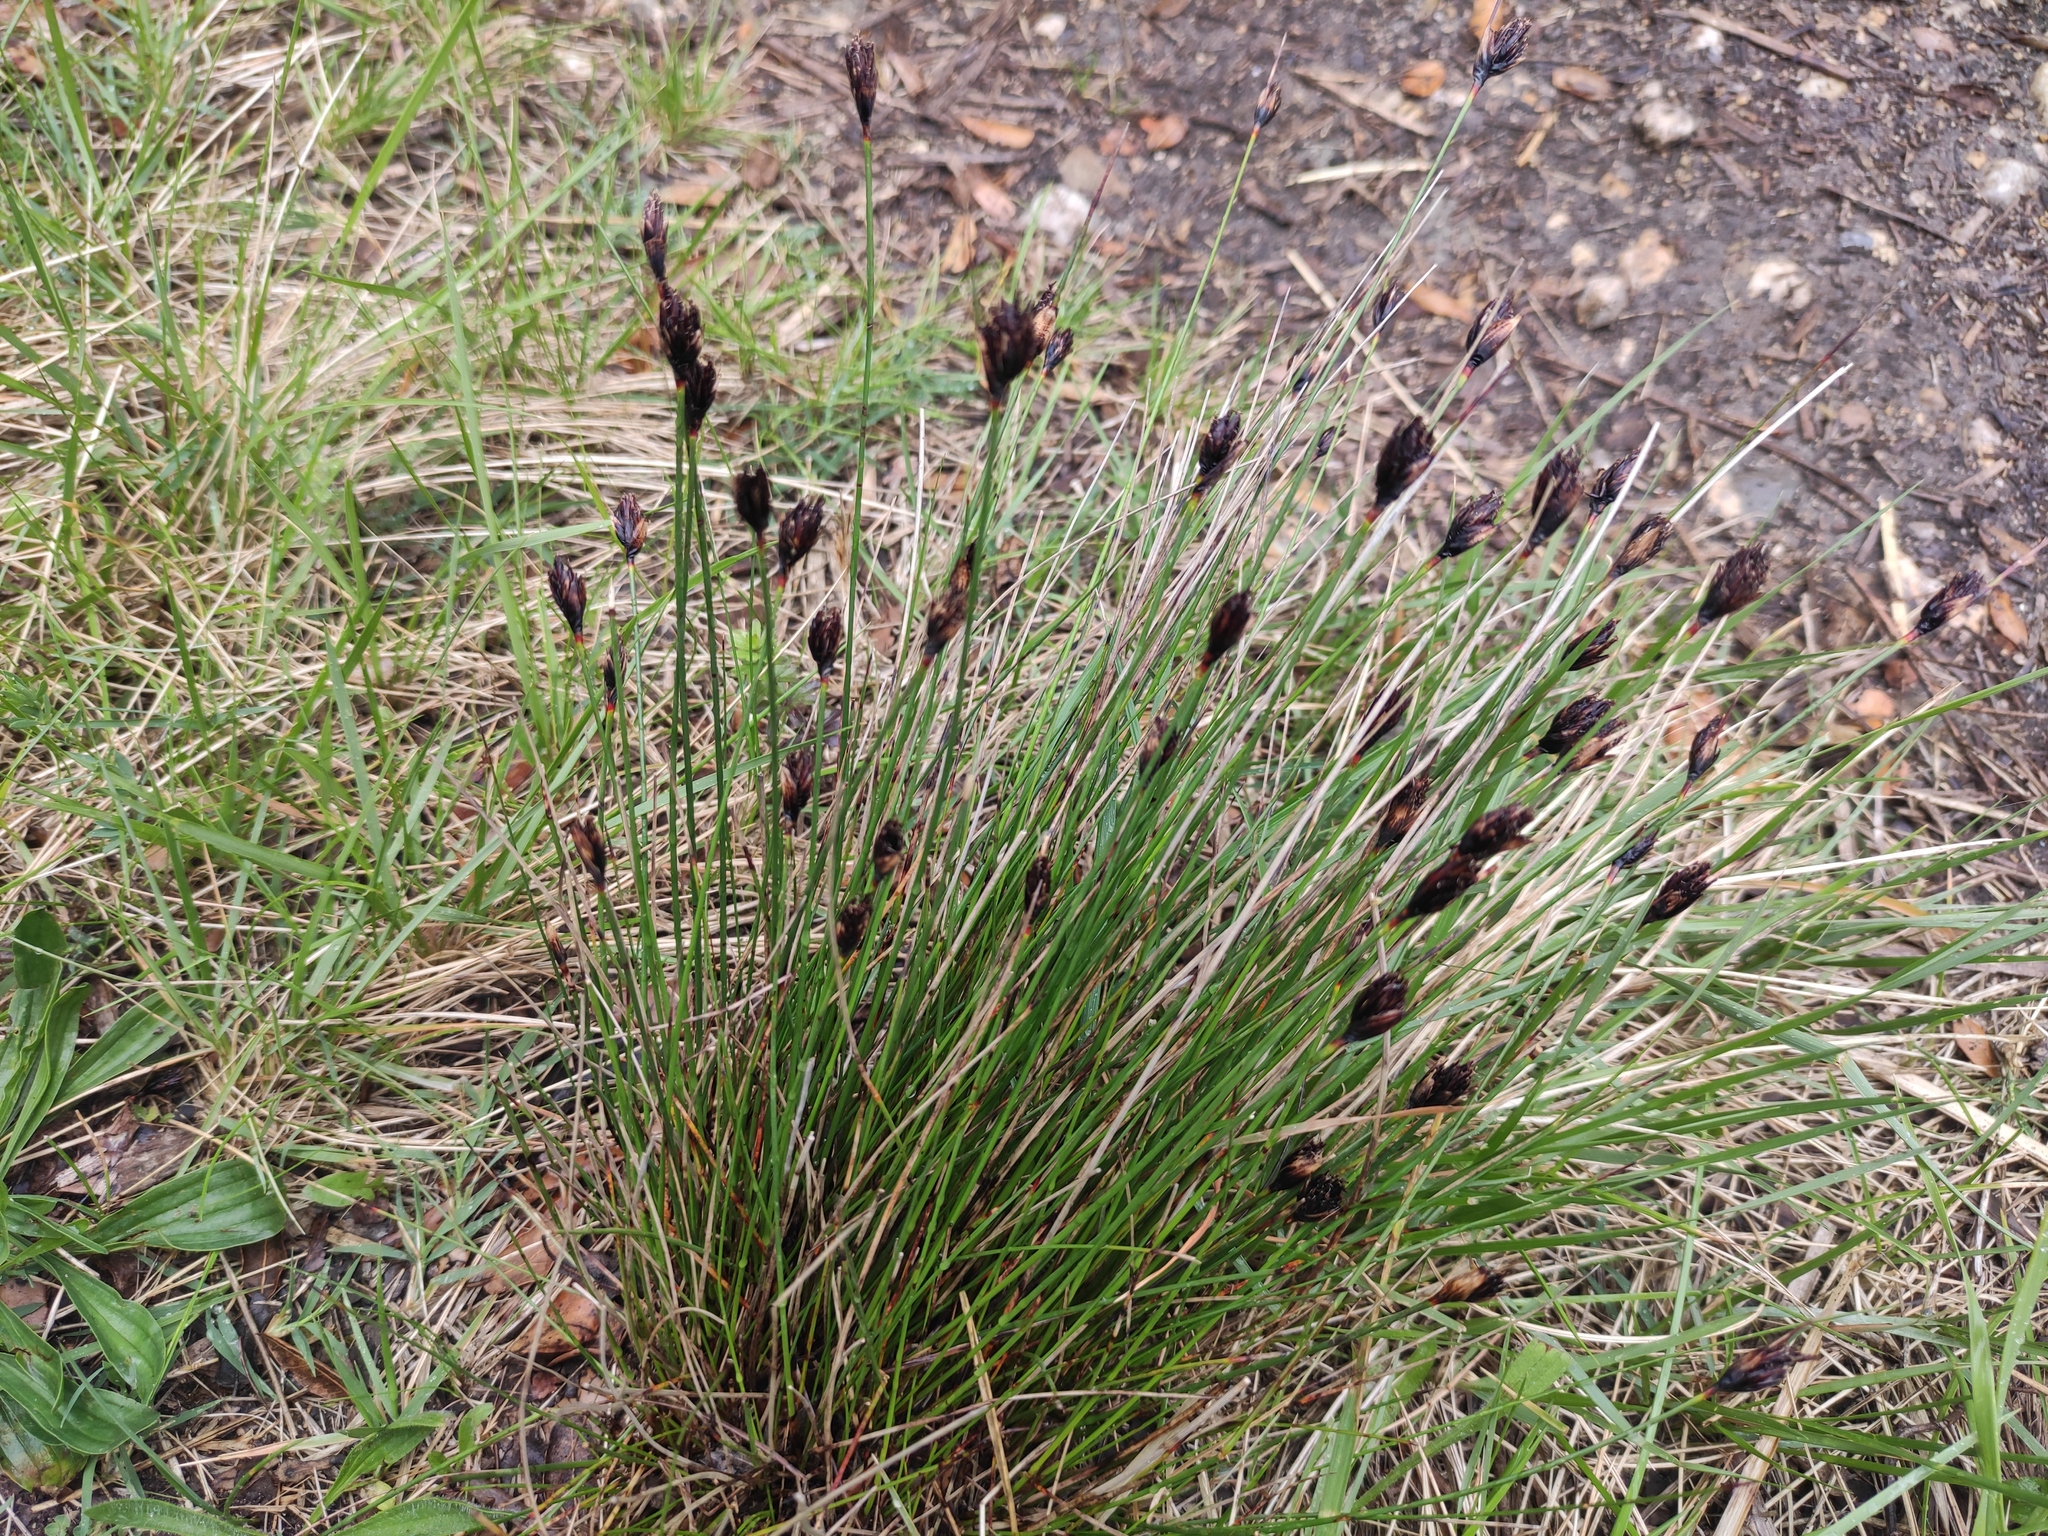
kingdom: Plantae
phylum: Tracheophyta
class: Liliopsida
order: Poales
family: Cyperaceae
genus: Schoenus
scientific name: Schoenus nigricans
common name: Black bog-rush
